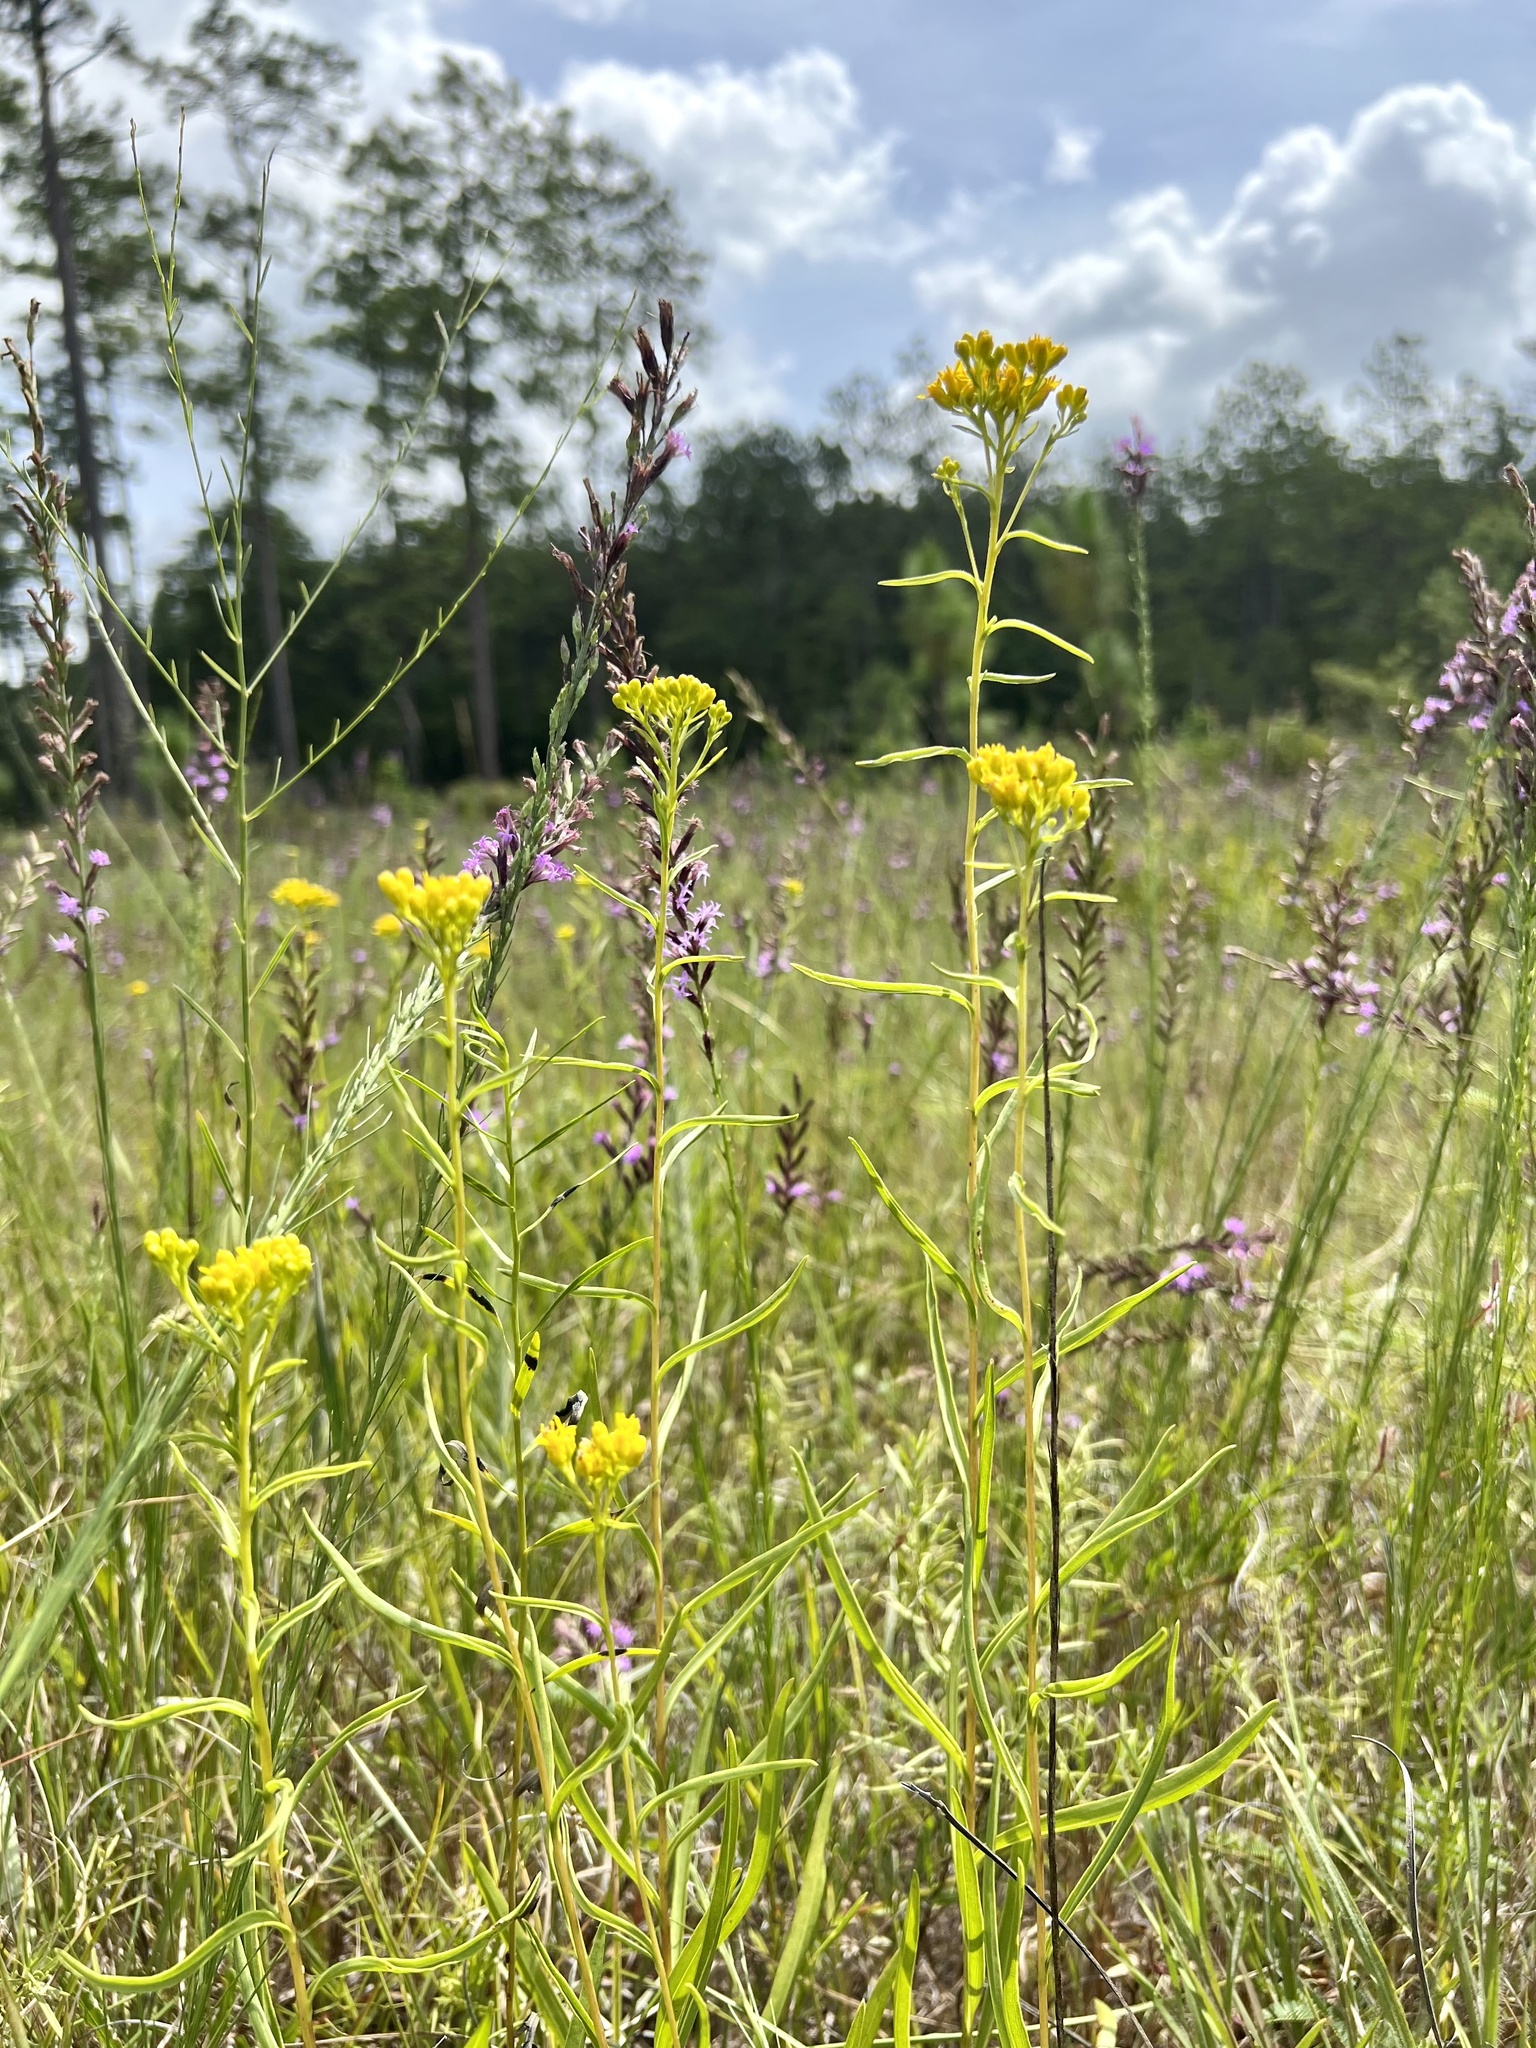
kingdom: Plantae
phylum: Tracheophyta
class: Magnoliopsida
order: Asterales
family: Asteraceae
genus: Solidago
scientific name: Solidago nitida
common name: Shiny goldenrod
